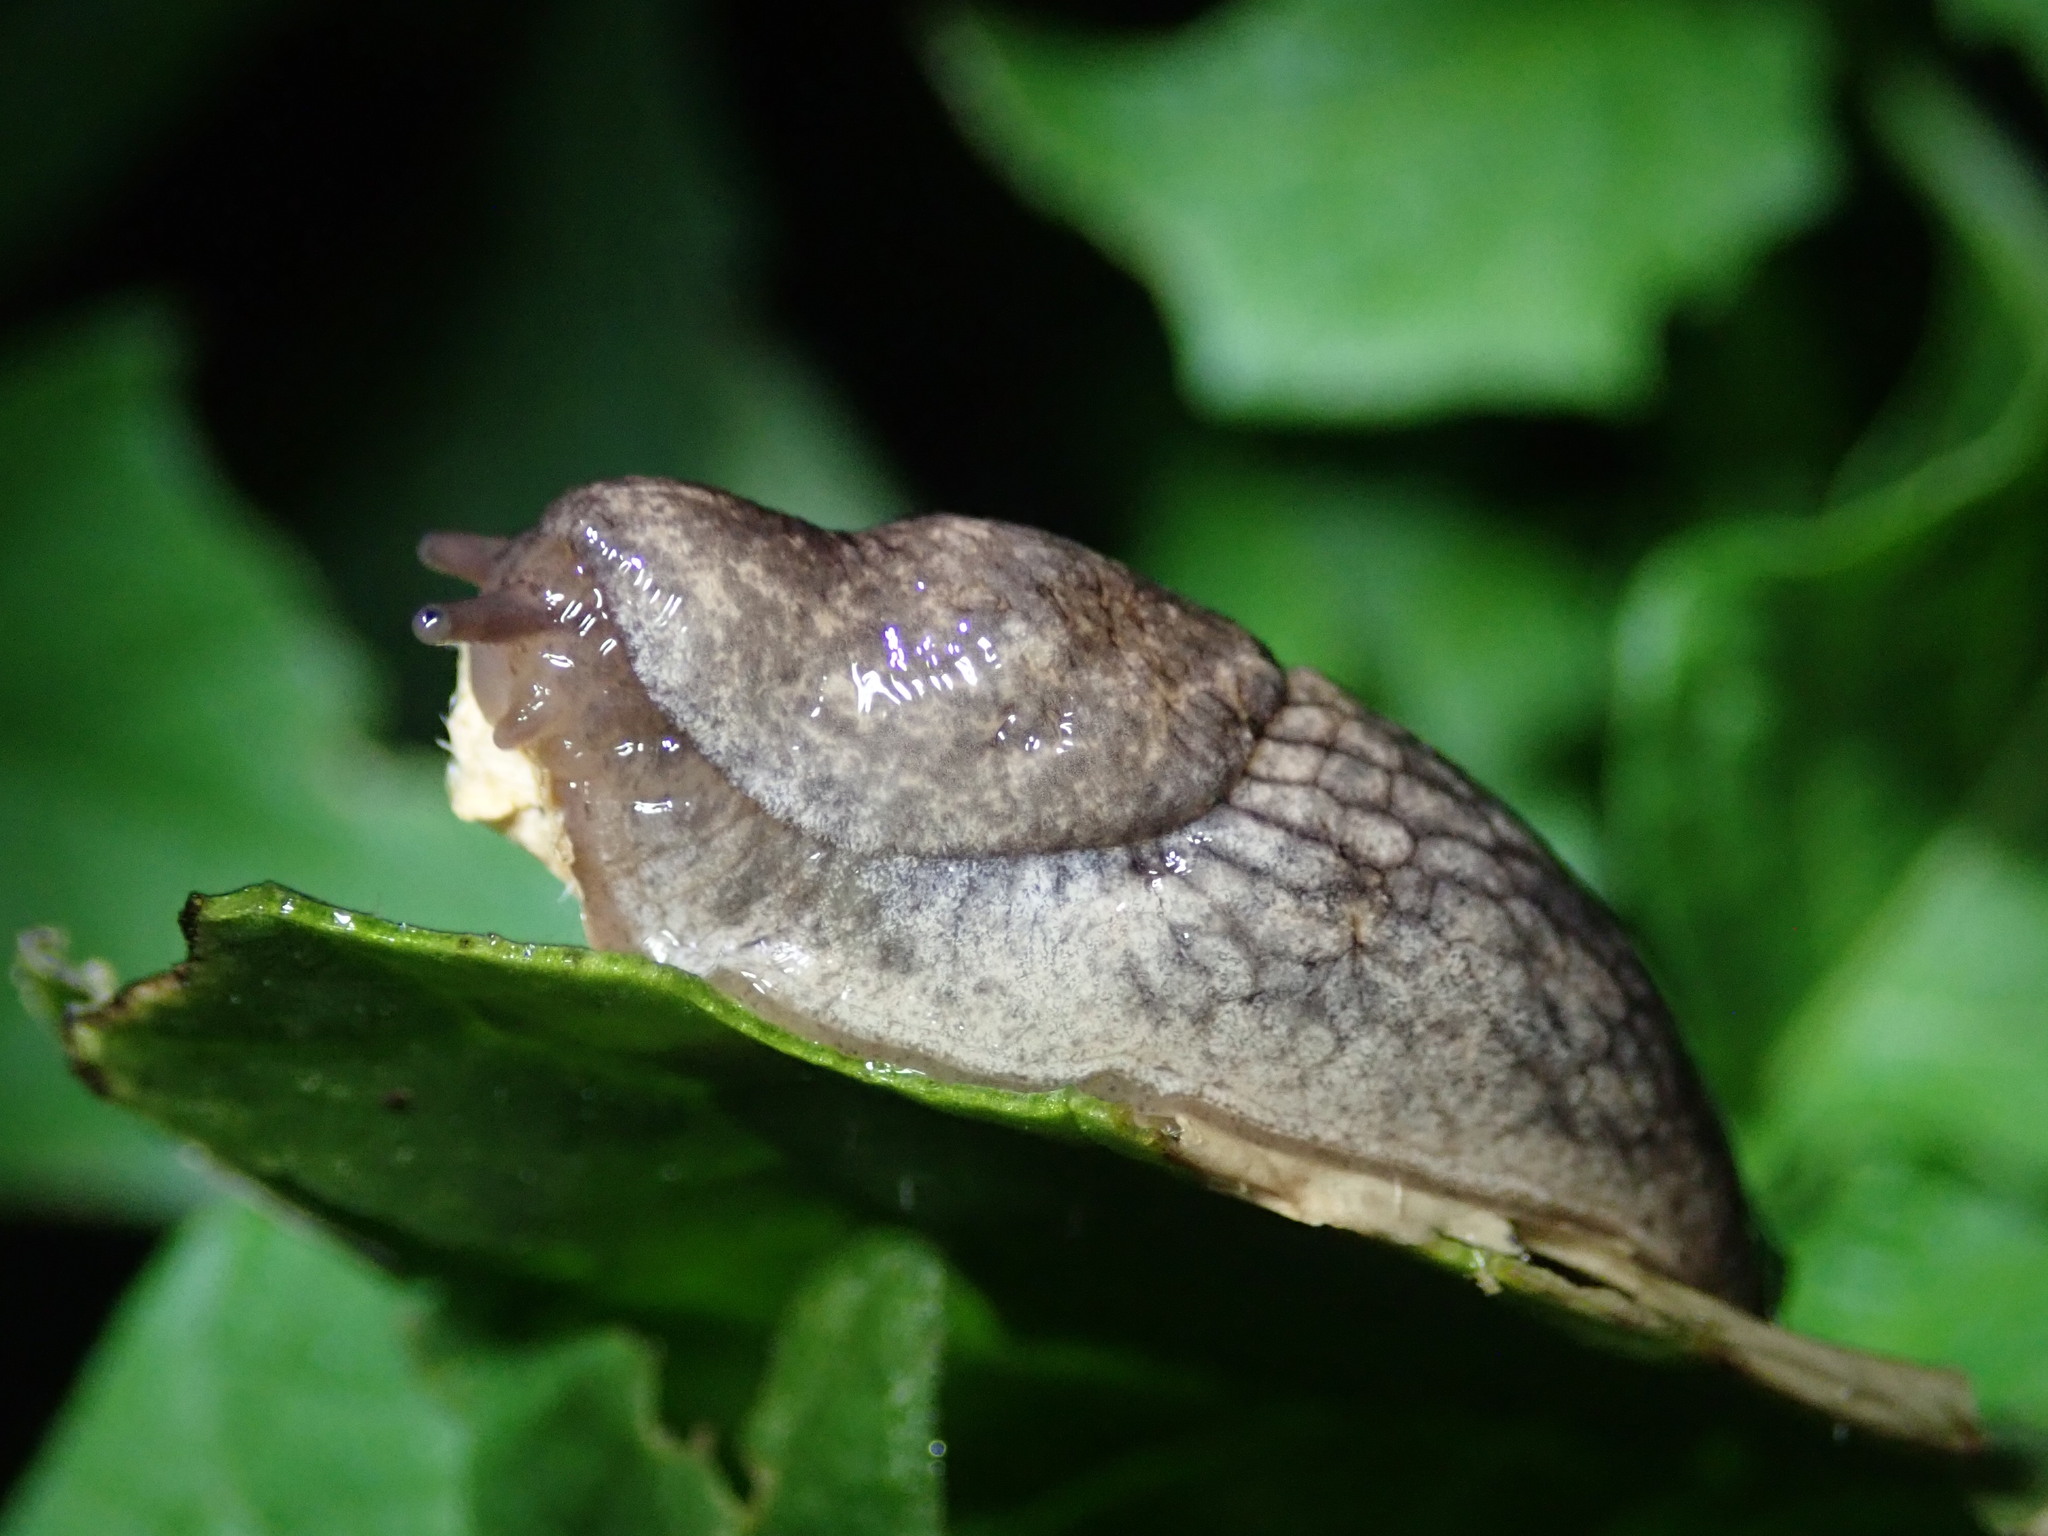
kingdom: Animalia
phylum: Mollusca
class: Gastropoda
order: Stylommatophora
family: Agriolimacidae
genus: Deroceras
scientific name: Deroceras reticulatum
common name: Gray field slug
